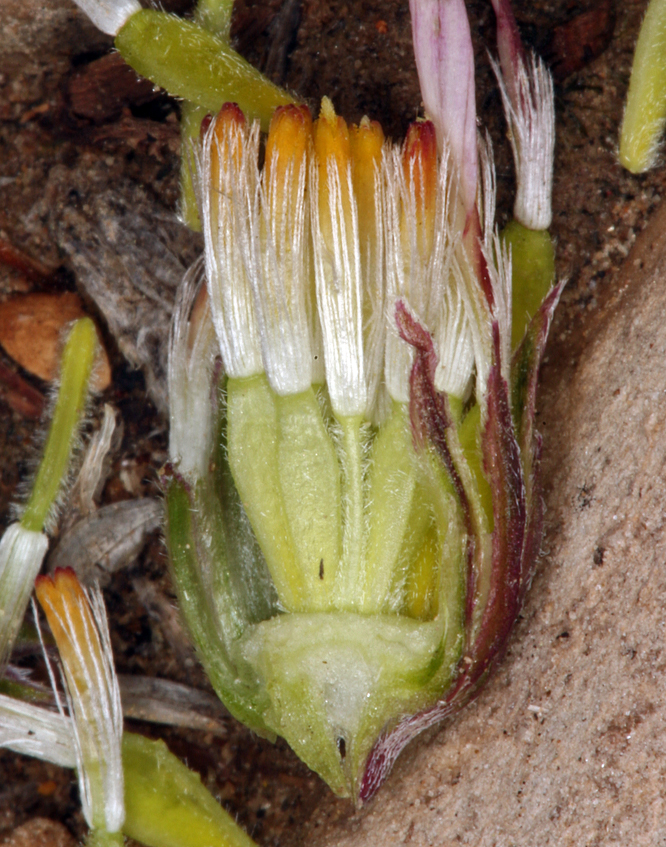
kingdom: Plantae
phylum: Tracheophyta
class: Magnoliopsida
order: Asterales
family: Asteraceae
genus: Townsendia
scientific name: Townsendia scapigera
